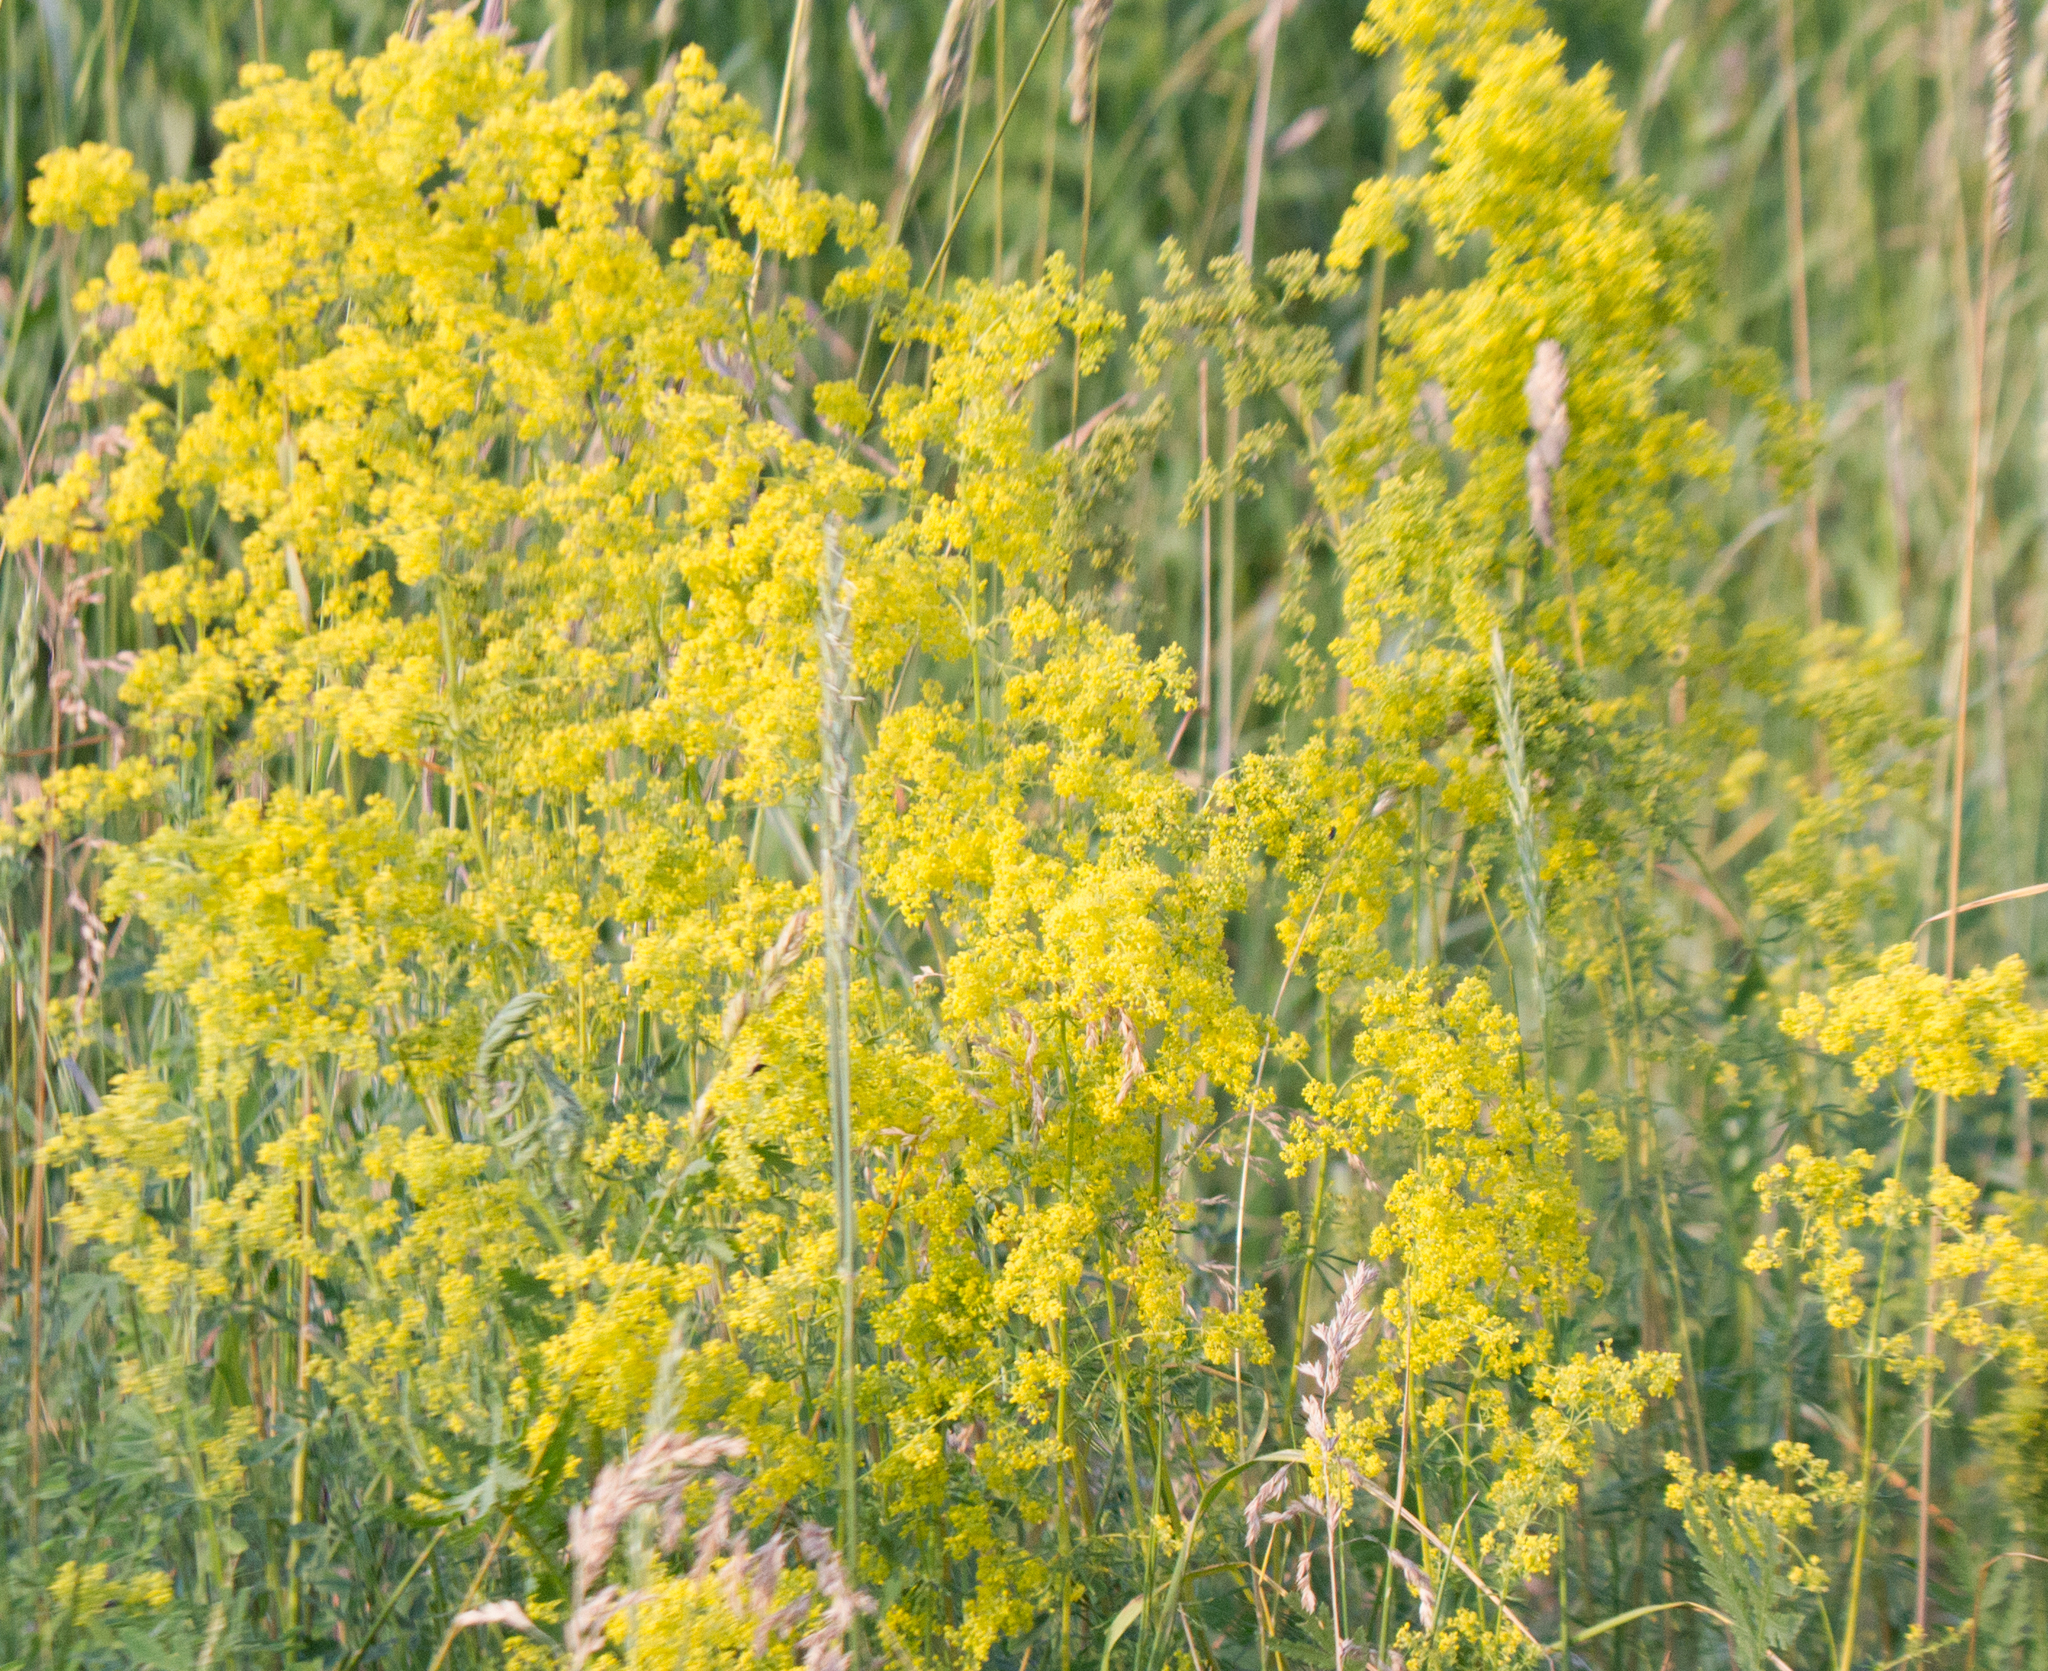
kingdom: Plantae
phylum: Tracheophyta
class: Magnoliopsida
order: Gentianales
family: Rubiaceae
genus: Galium
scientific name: Galium verum
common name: Lady's bedstraw
